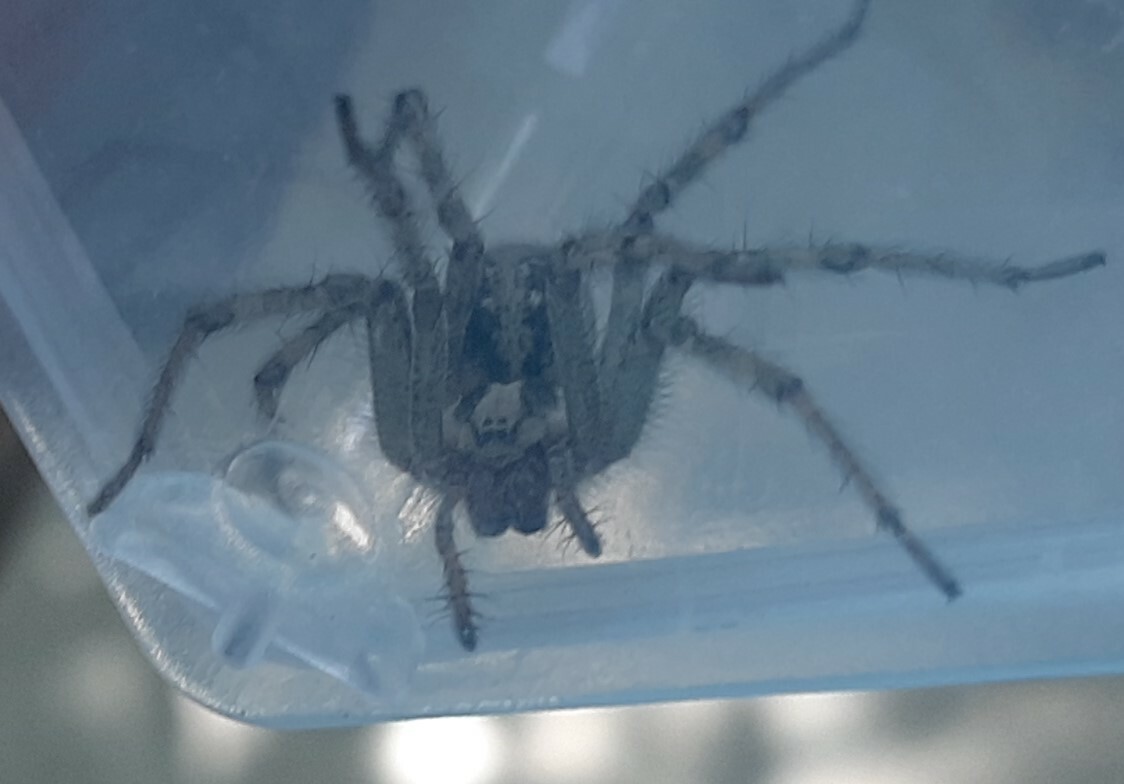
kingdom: Animalia
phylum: Arthropoda
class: Arachnida
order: Araneae
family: Agelenidae
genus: Agelena
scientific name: Agelena labyrinthica
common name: Labyrinth spider
